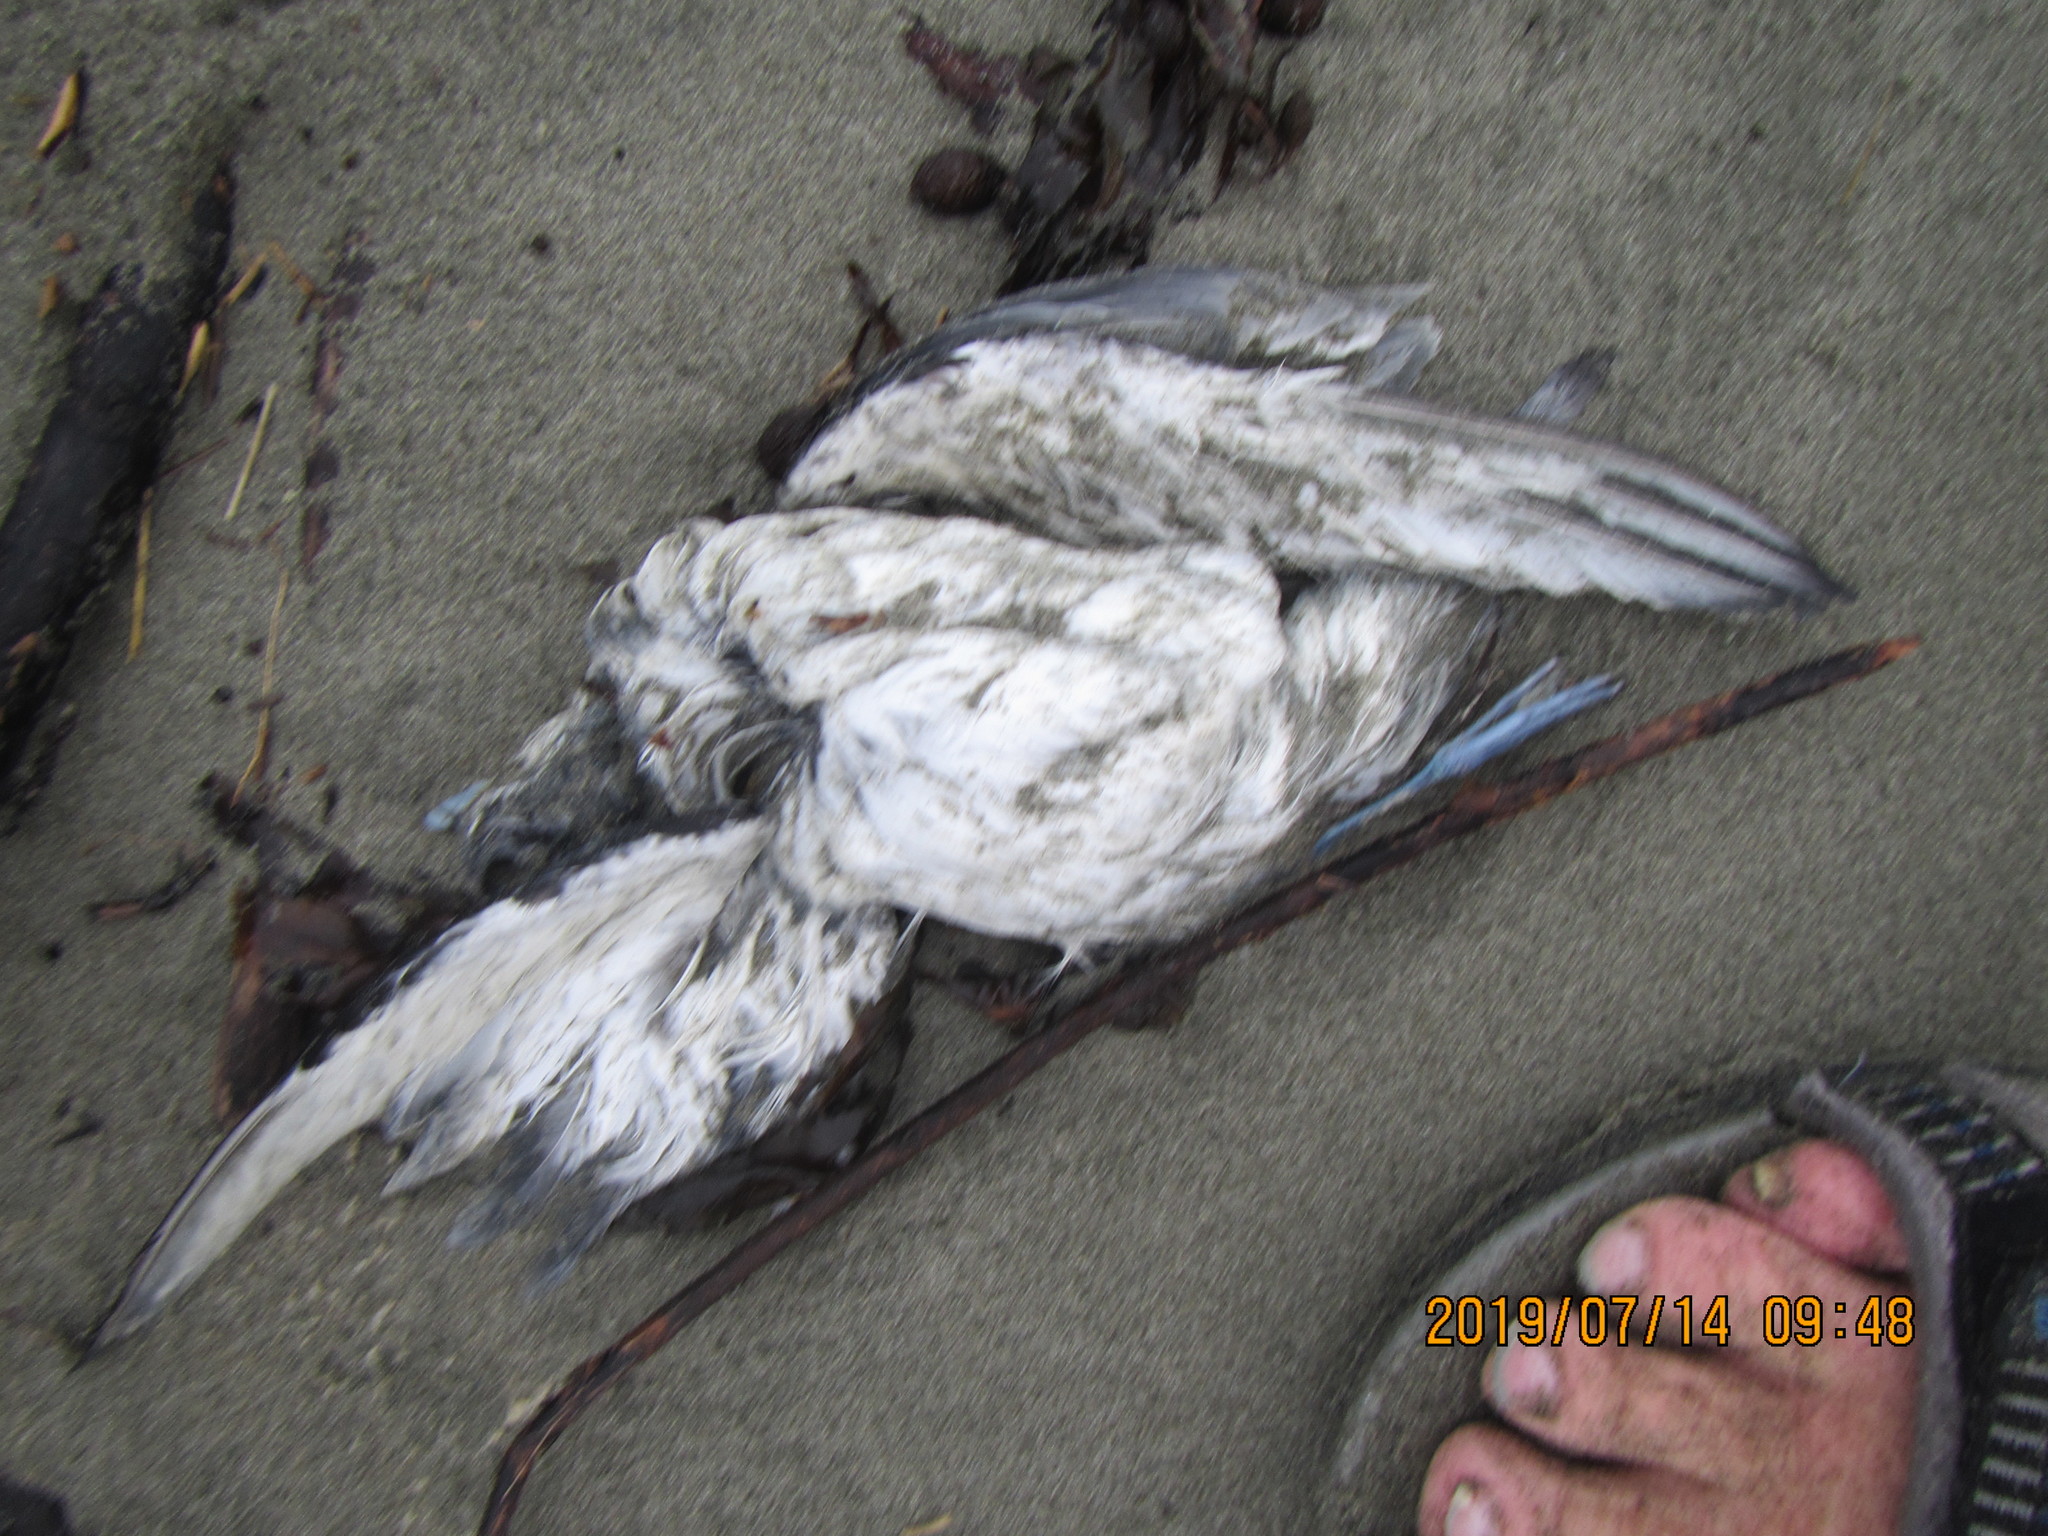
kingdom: Animalia
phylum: Chordata
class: Aves
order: Procellariiformes
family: Procellariidae
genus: Pachyptila
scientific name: Pachyptila
